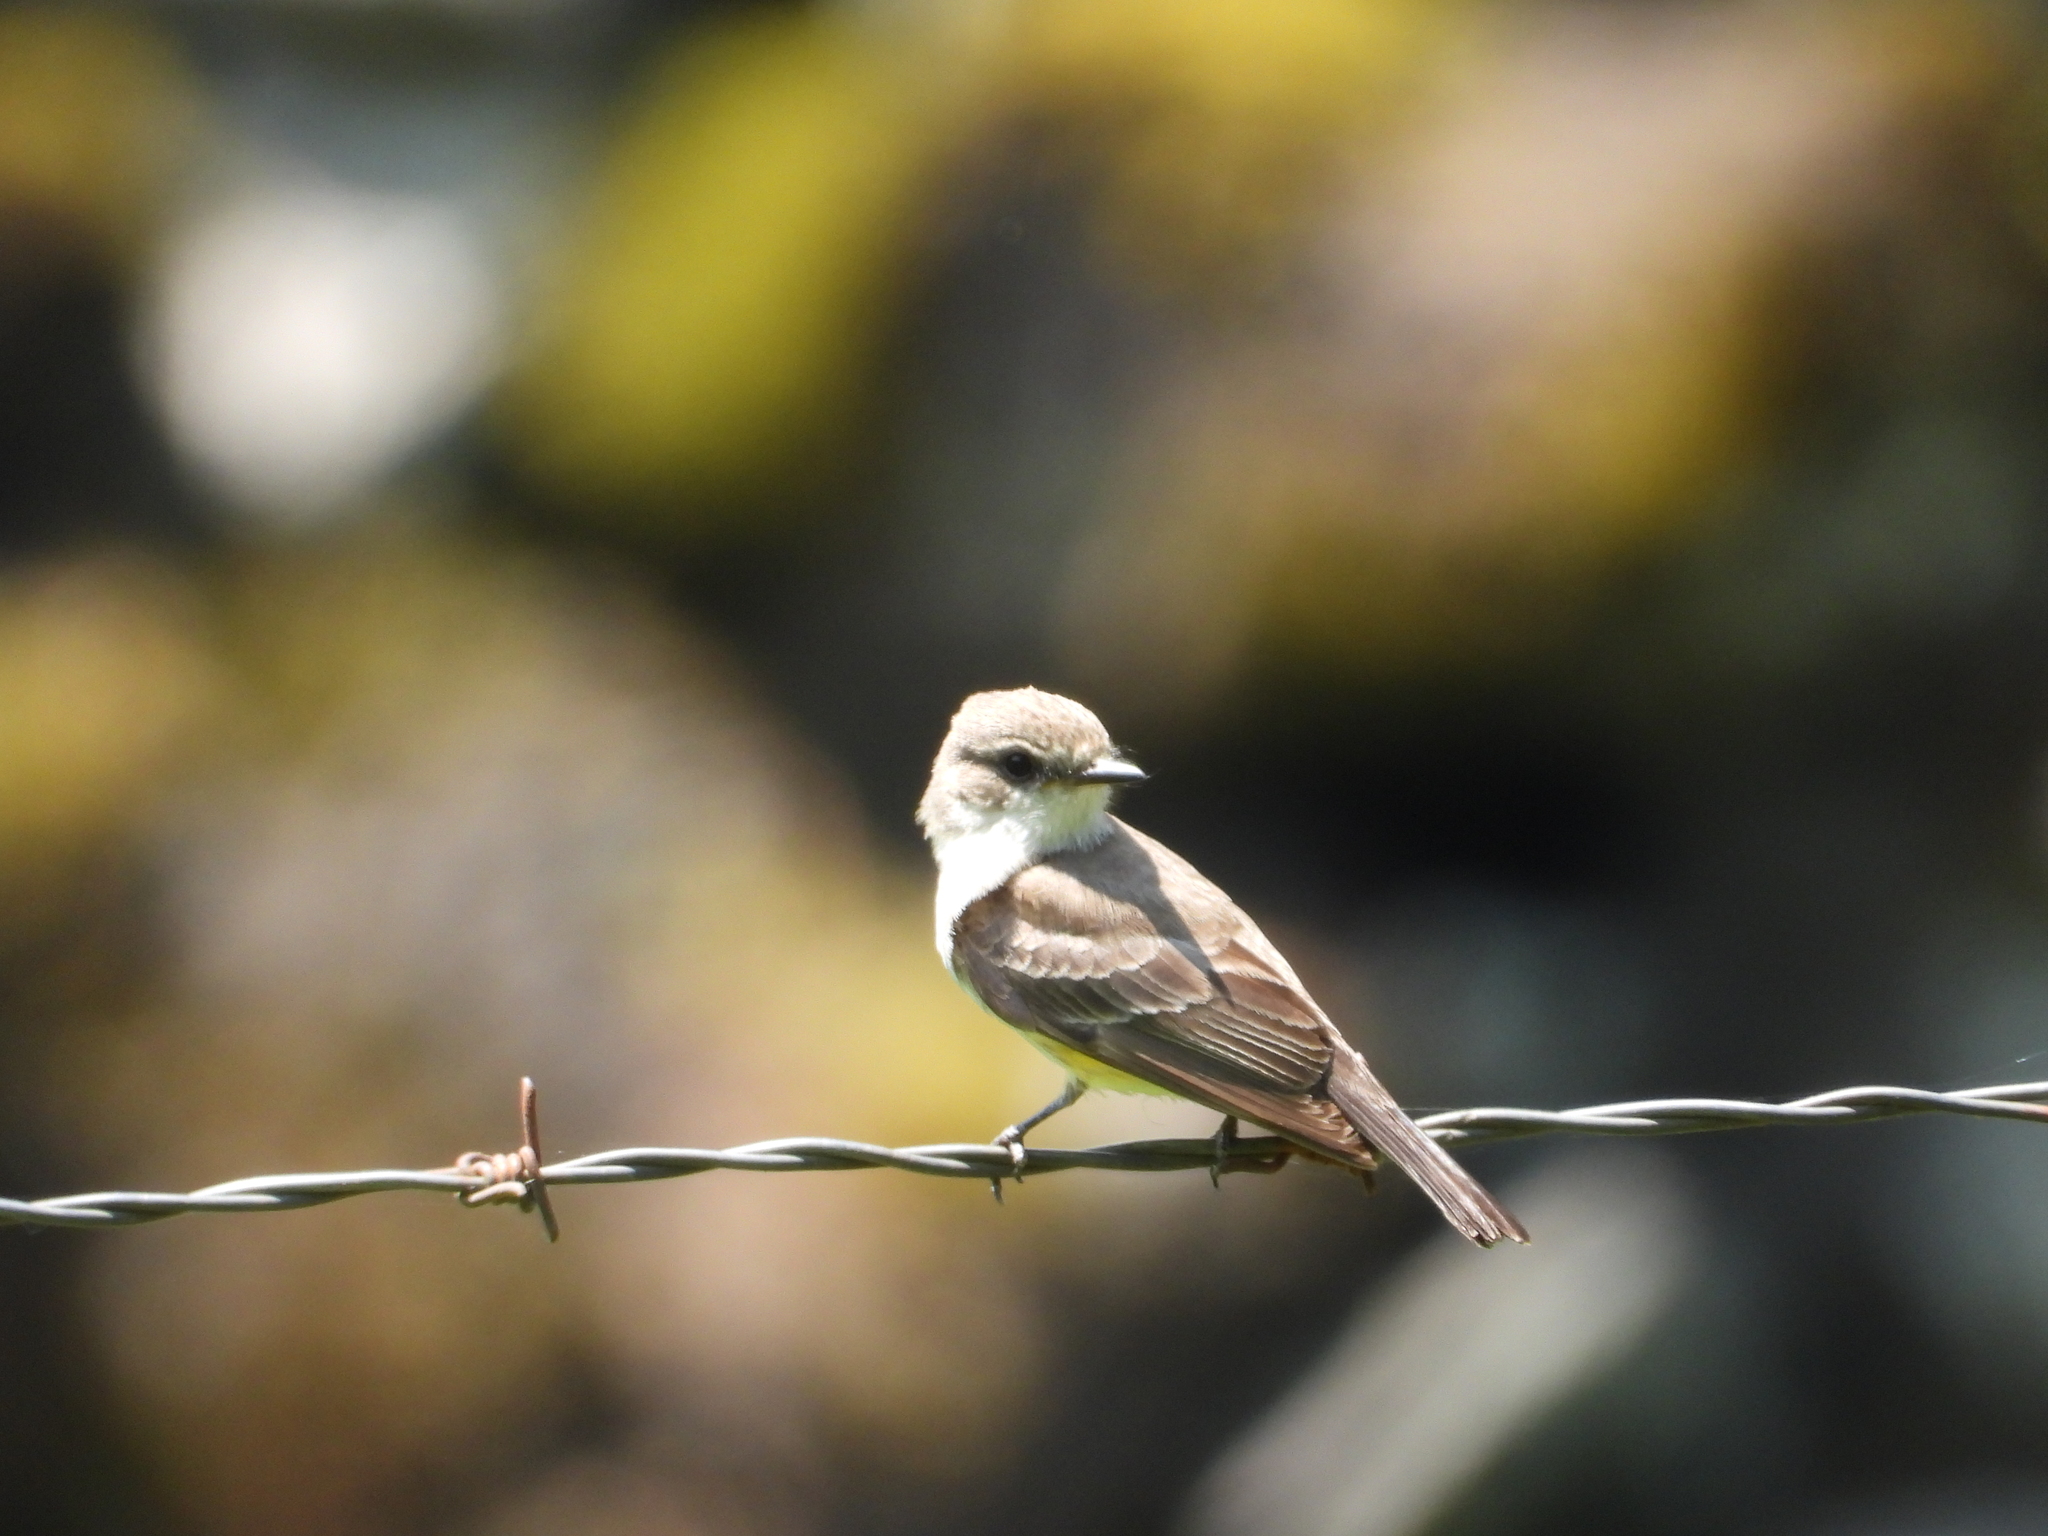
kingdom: Animalia
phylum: Chordata
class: Aves
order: Passeriformes
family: Tyrannidae
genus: Pyrocephalus
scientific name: Pyrocephalus rubinus
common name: Vermilion flycatcher
